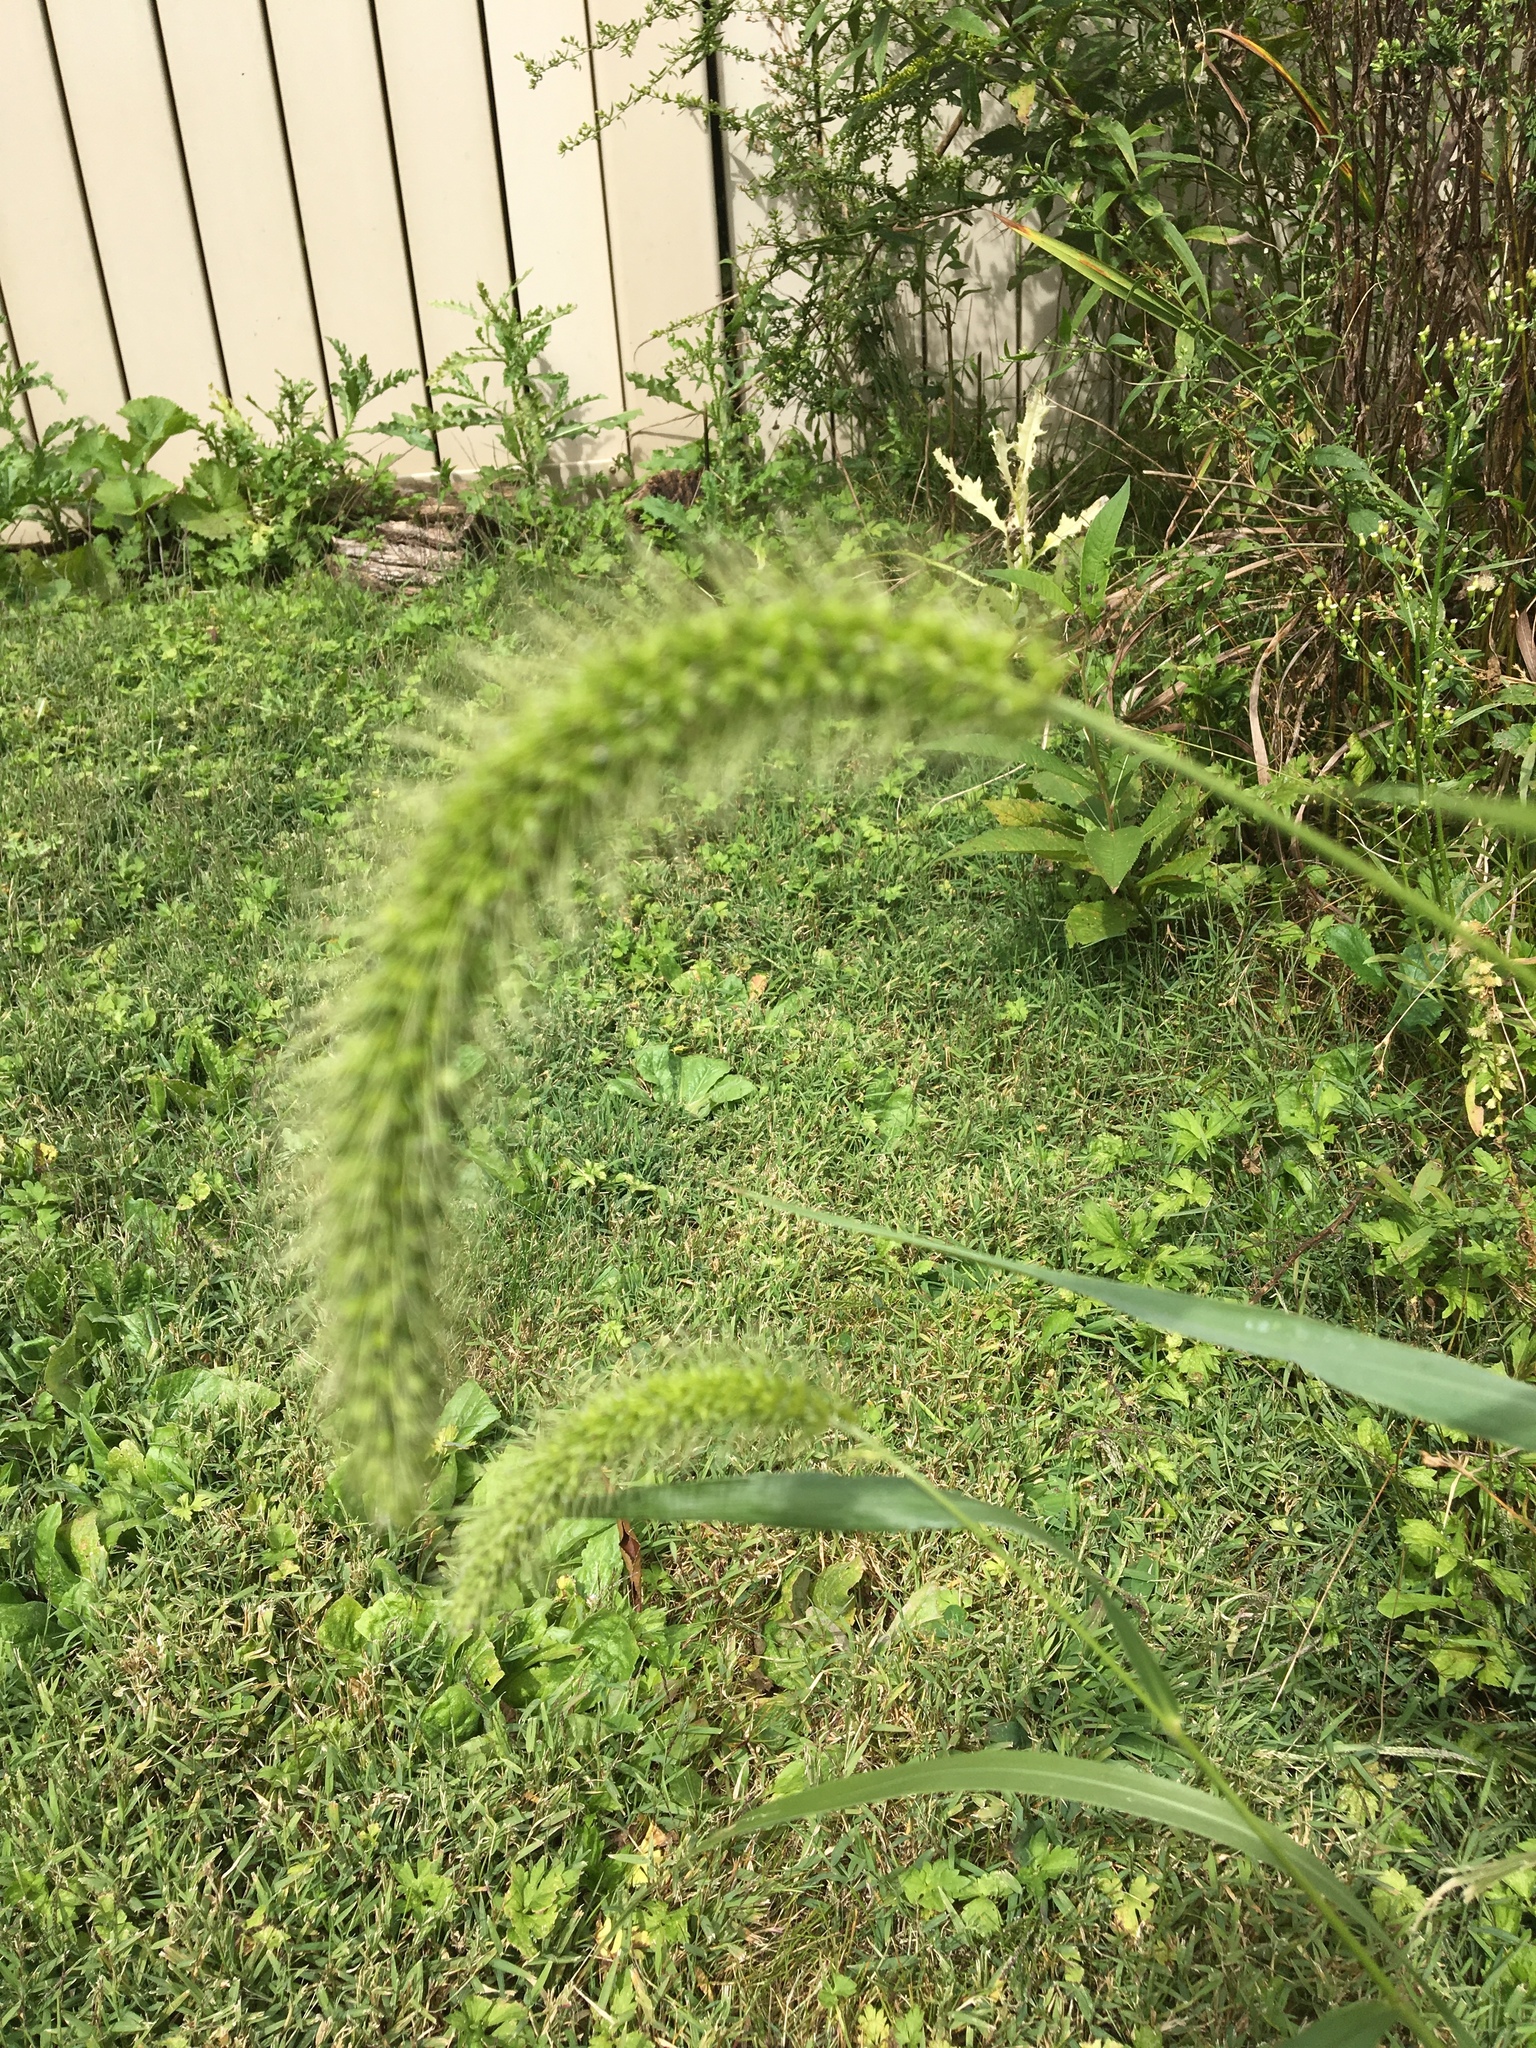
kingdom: Plantae
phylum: Tracheophyta
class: Liliopsida
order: Poales
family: Poaceae
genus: Setaria
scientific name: Setaria faberi
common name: Nodding bristle-grass
